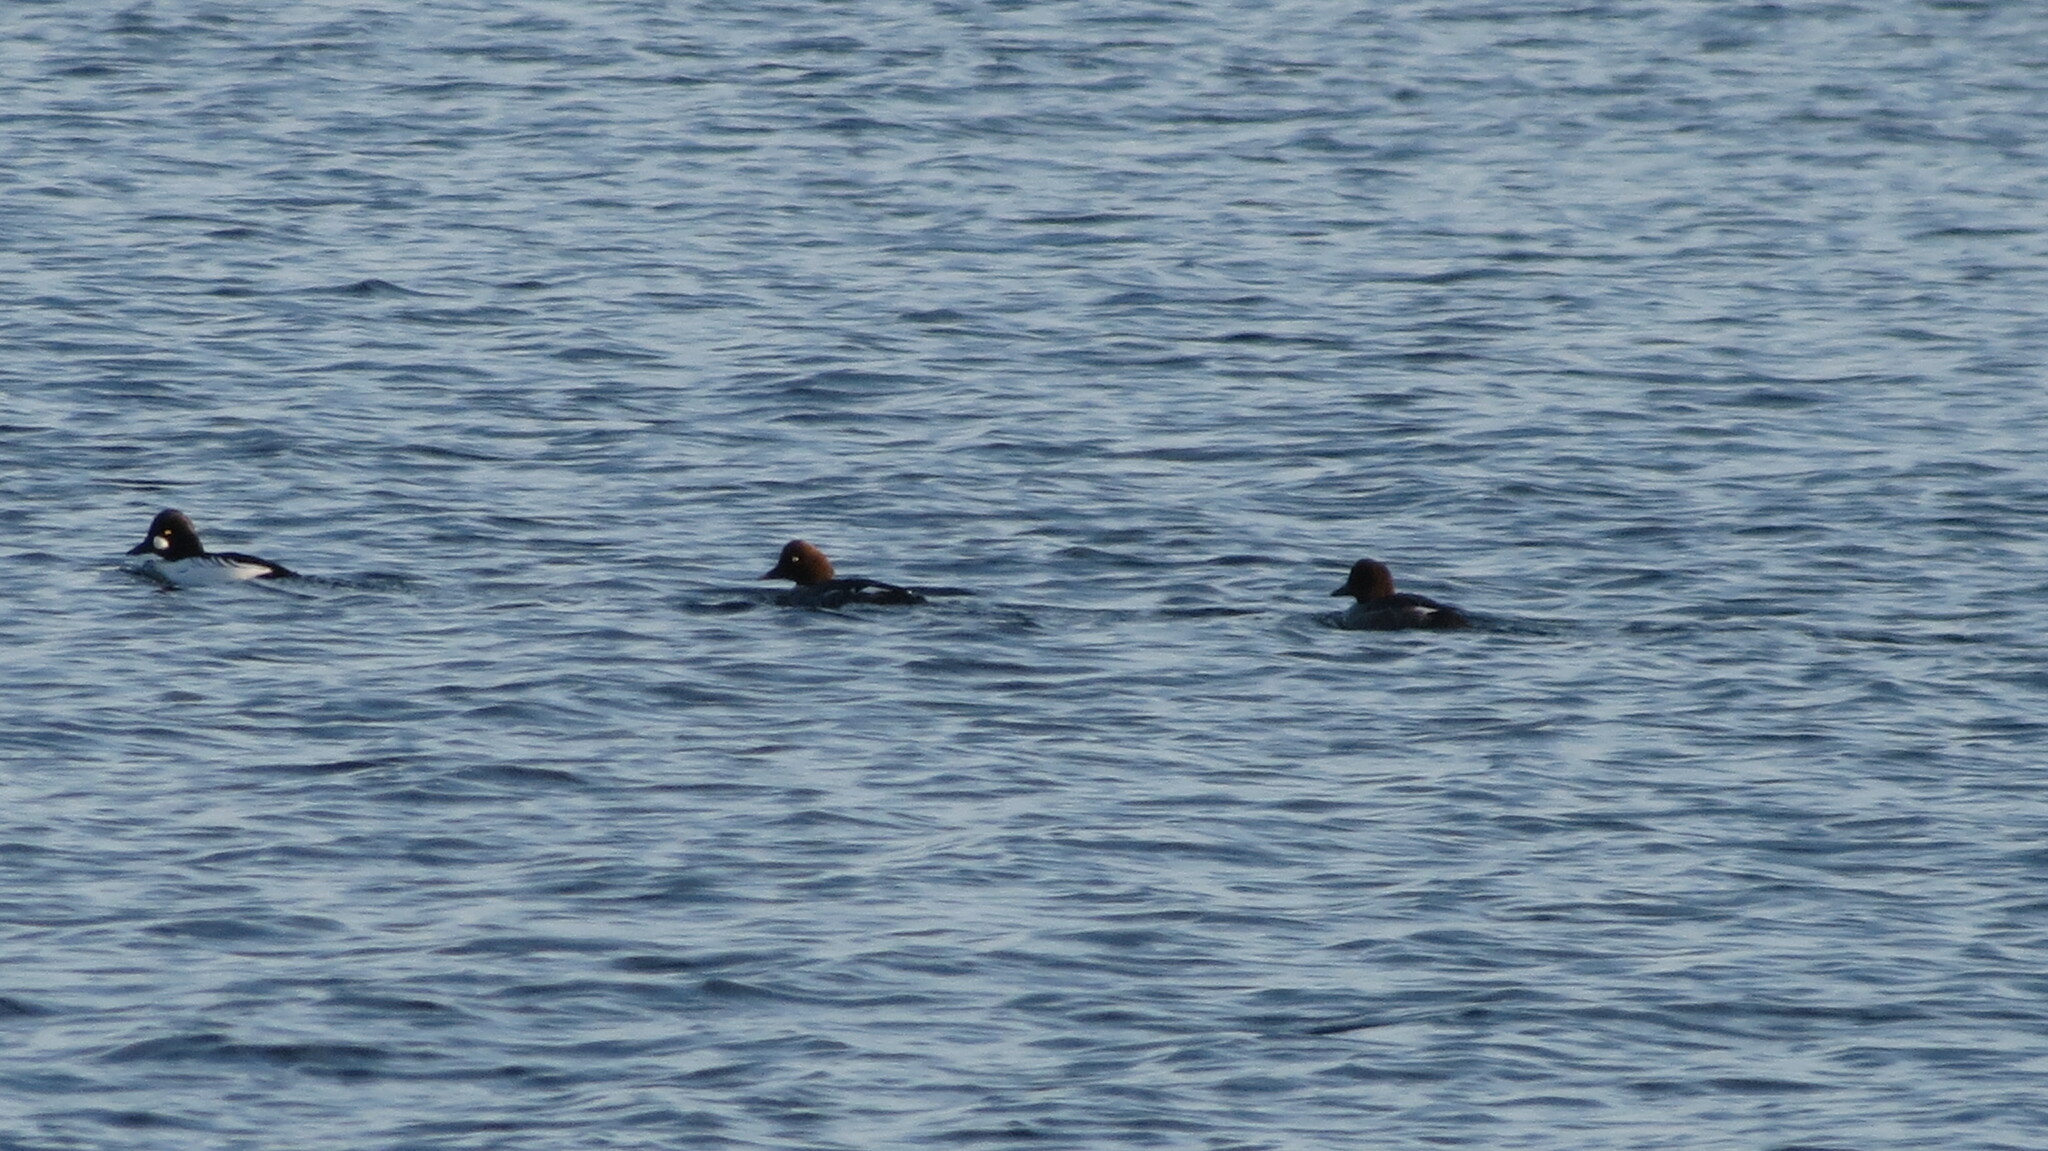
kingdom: Animalia
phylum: Chordata
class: Aves
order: Anseriformes
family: Anatidae
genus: Bucephala
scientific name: Bucephala clangula
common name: Common goldeneye
